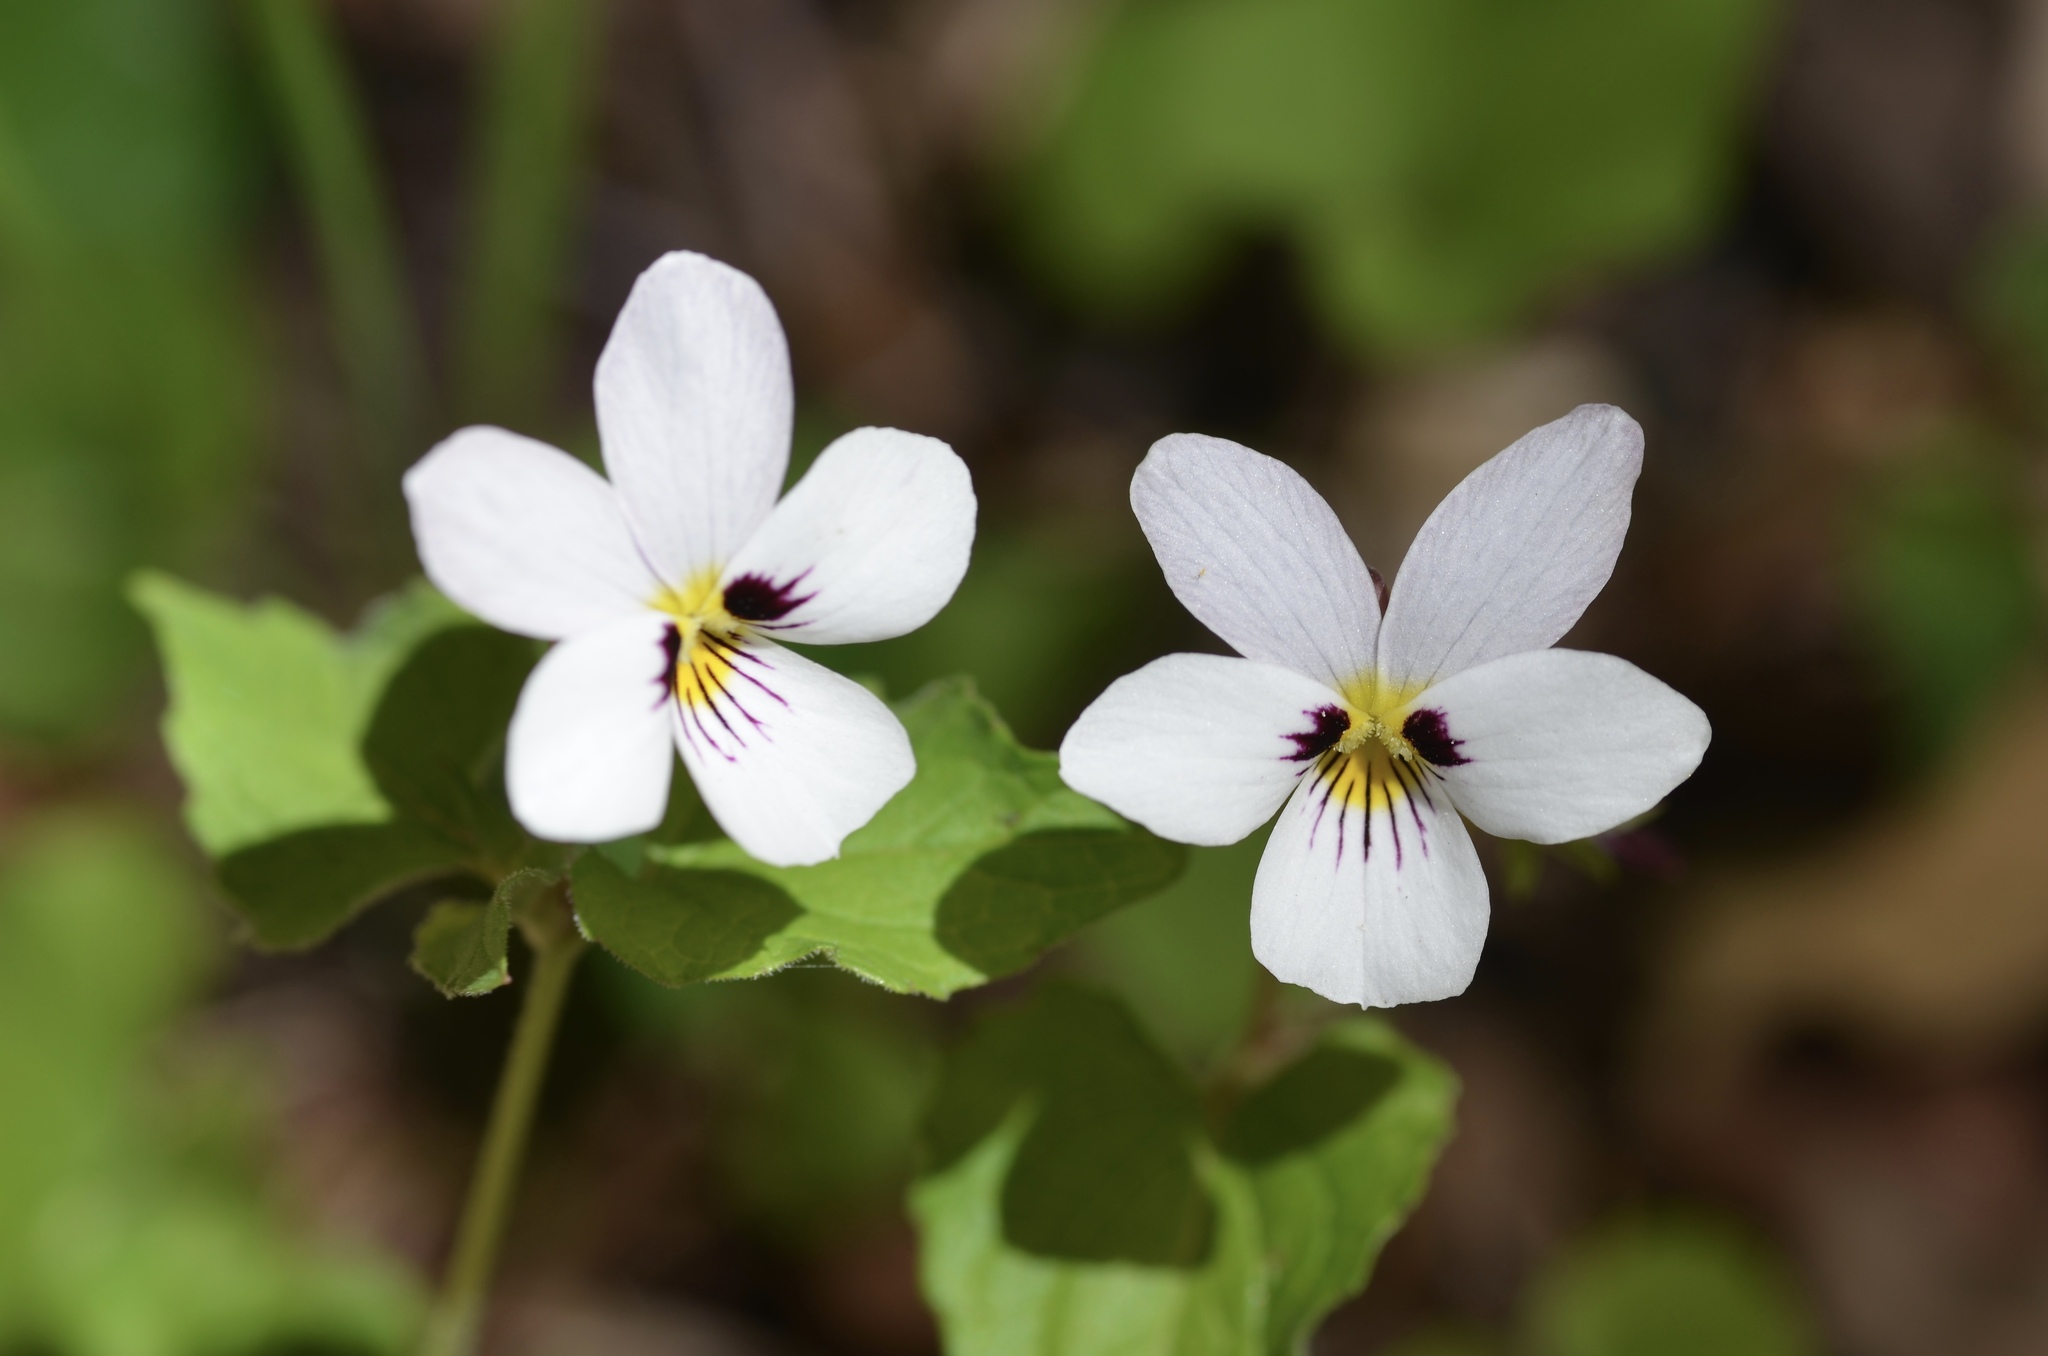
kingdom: Plantae
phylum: Tracheophyta
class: Magnoliopsida
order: Malpighiales
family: Violaceae
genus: Viola
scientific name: Viola ocellata
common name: Western heart's ease
